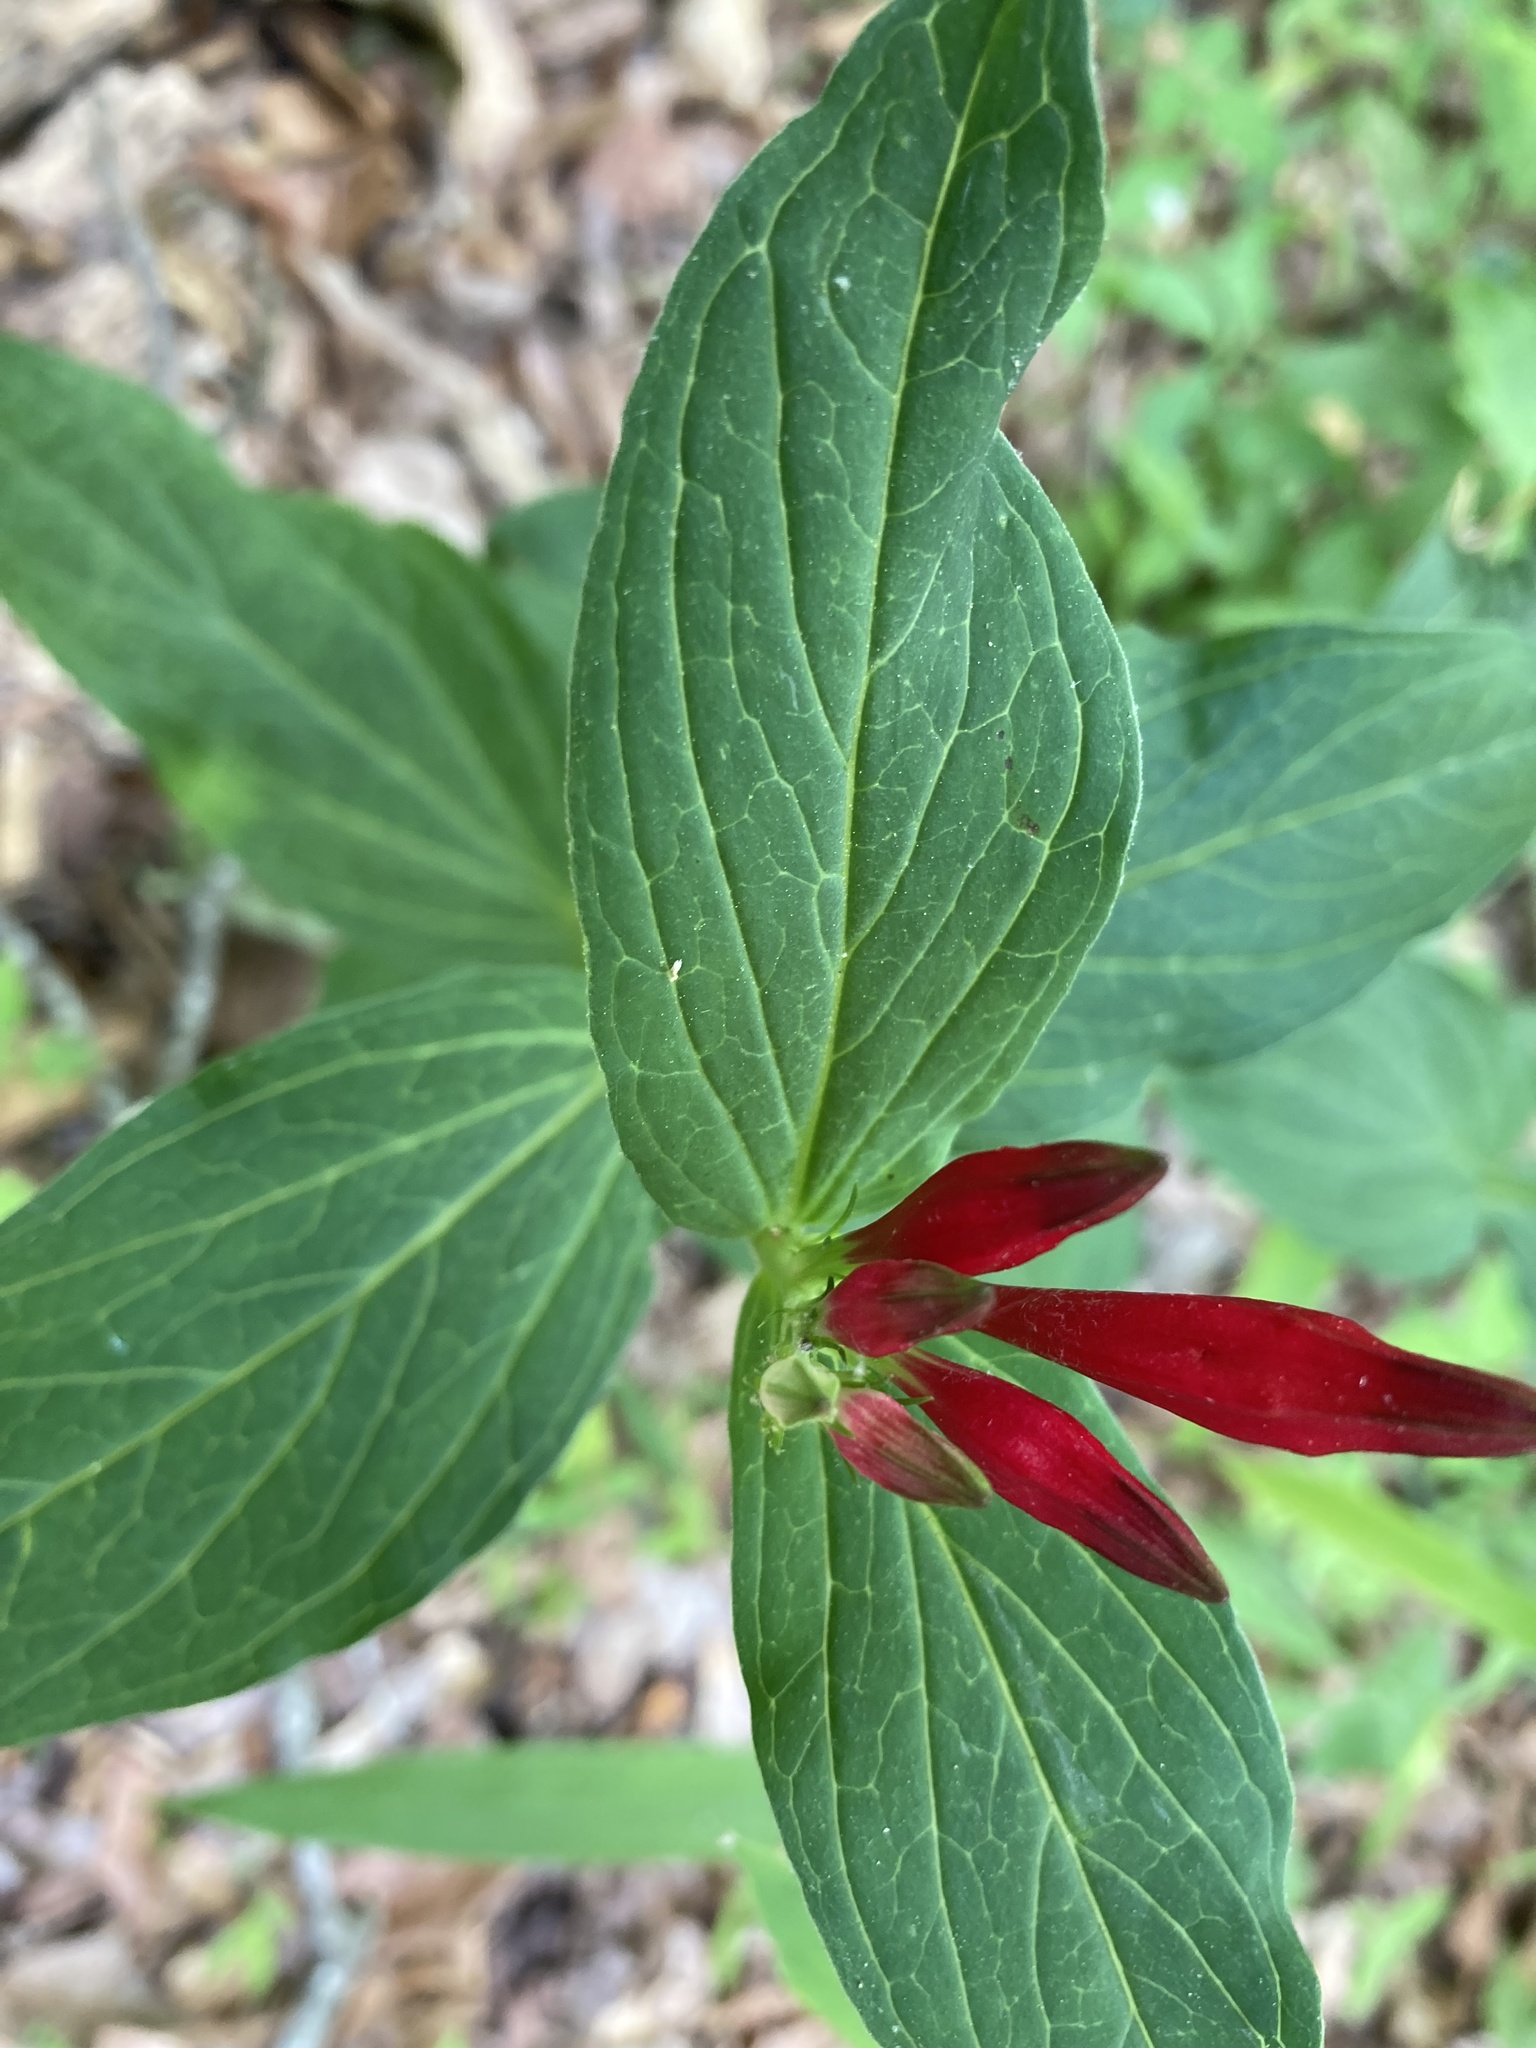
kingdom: Plantae
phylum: Tracheophyta
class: Magnoliopsida
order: Gentianales
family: Loganiaceae
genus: Spigelia
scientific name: Spigelia marilandica
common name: Indian-pink
